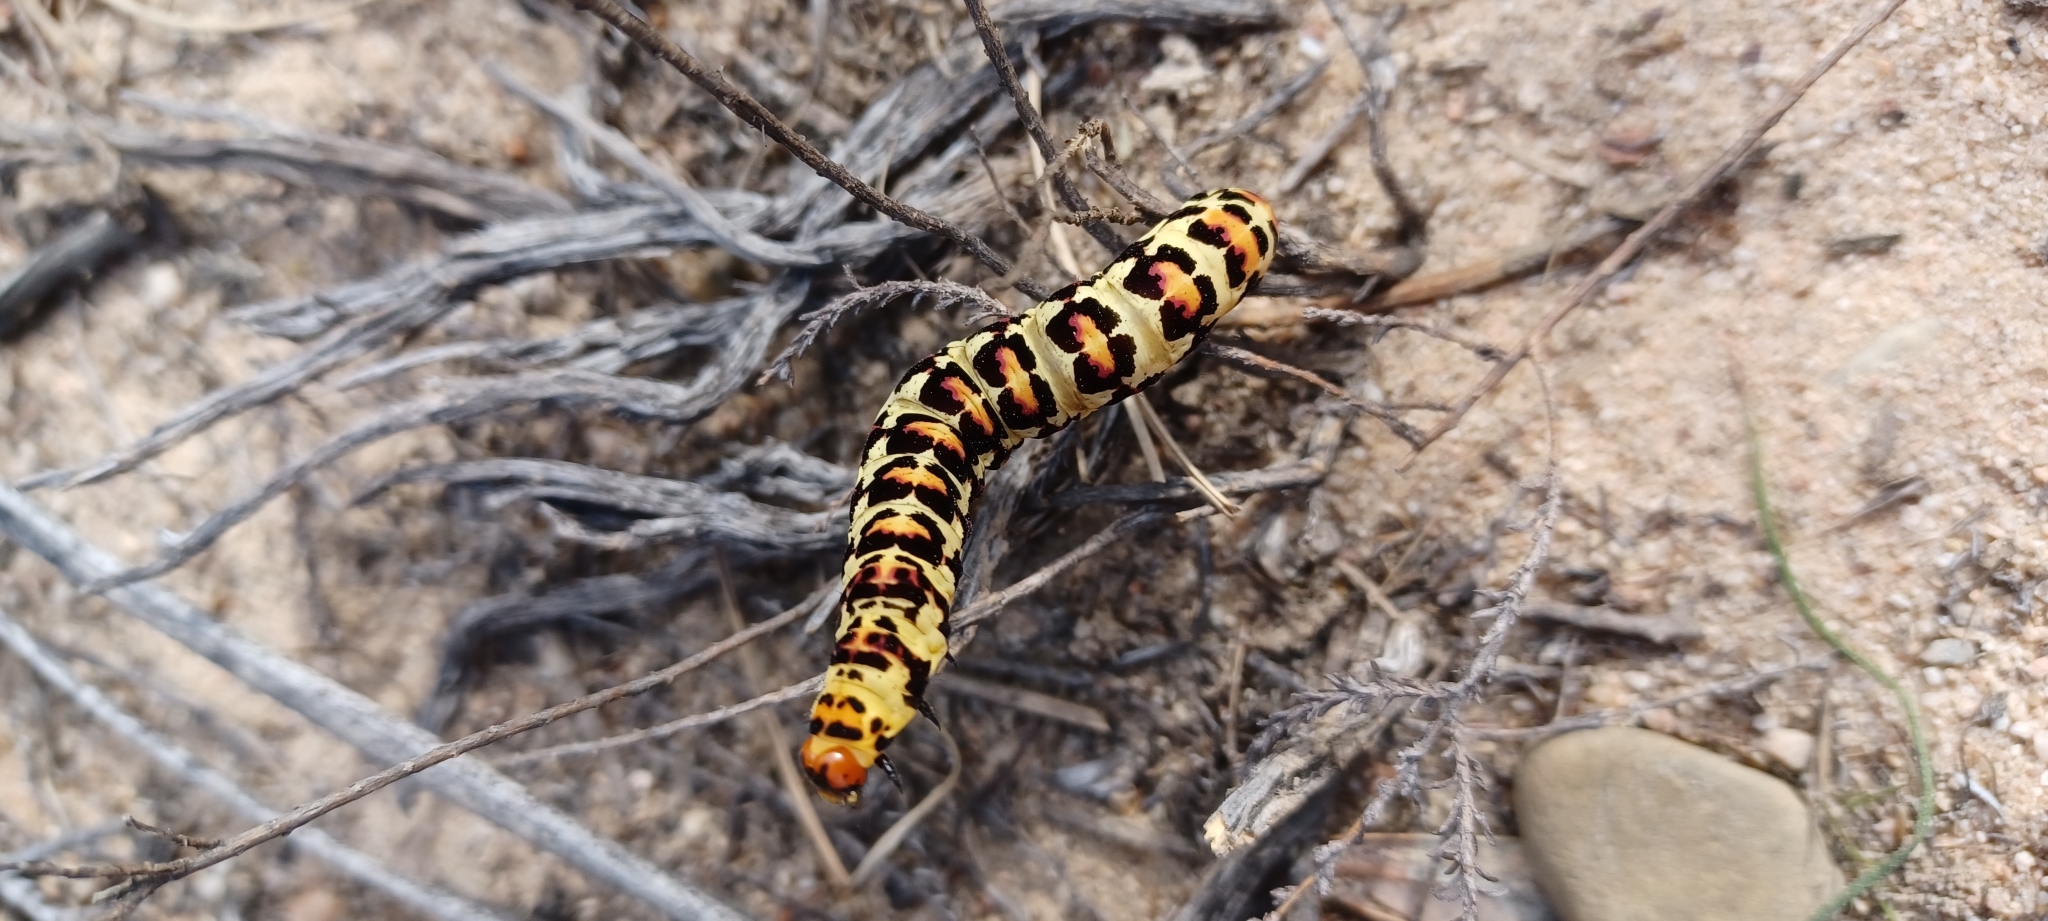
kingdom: Animalia
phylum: Arthropoda
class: Insecta
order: Lepidoptera
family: Noctuidae
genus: Diaphone
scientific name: Diaphone eumela
